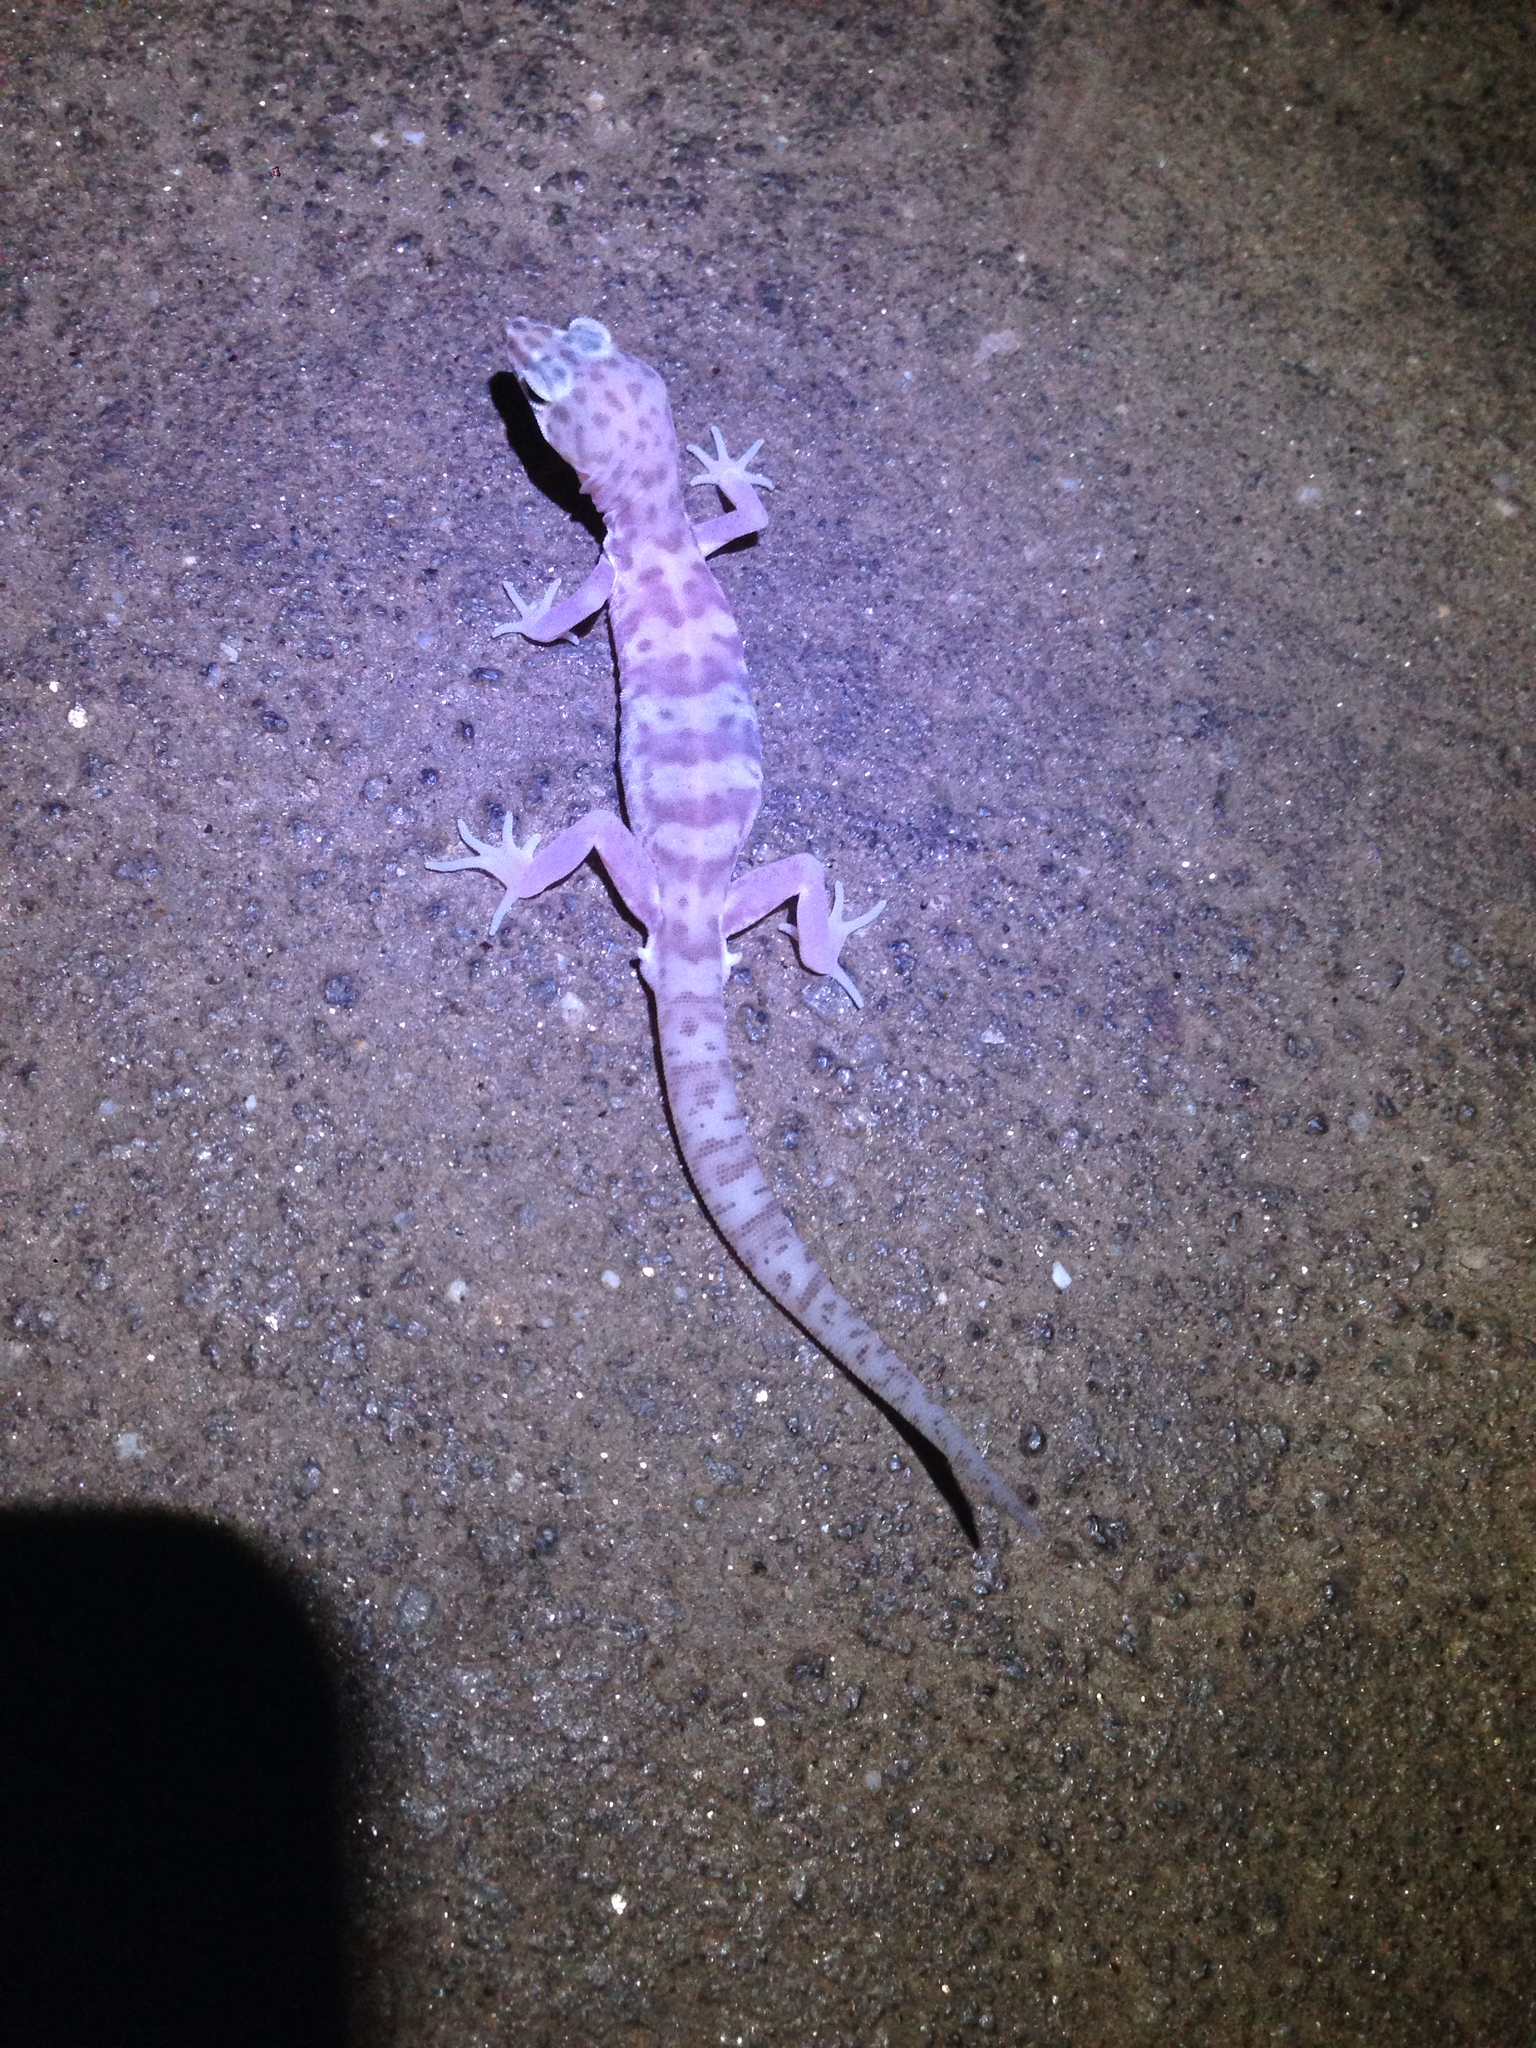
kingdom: Animalia
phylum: Chordata
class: Squamata
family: Eublepharidae
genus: Coleonyx
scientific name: Coleonyx variegatus
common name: Western banded gecko
